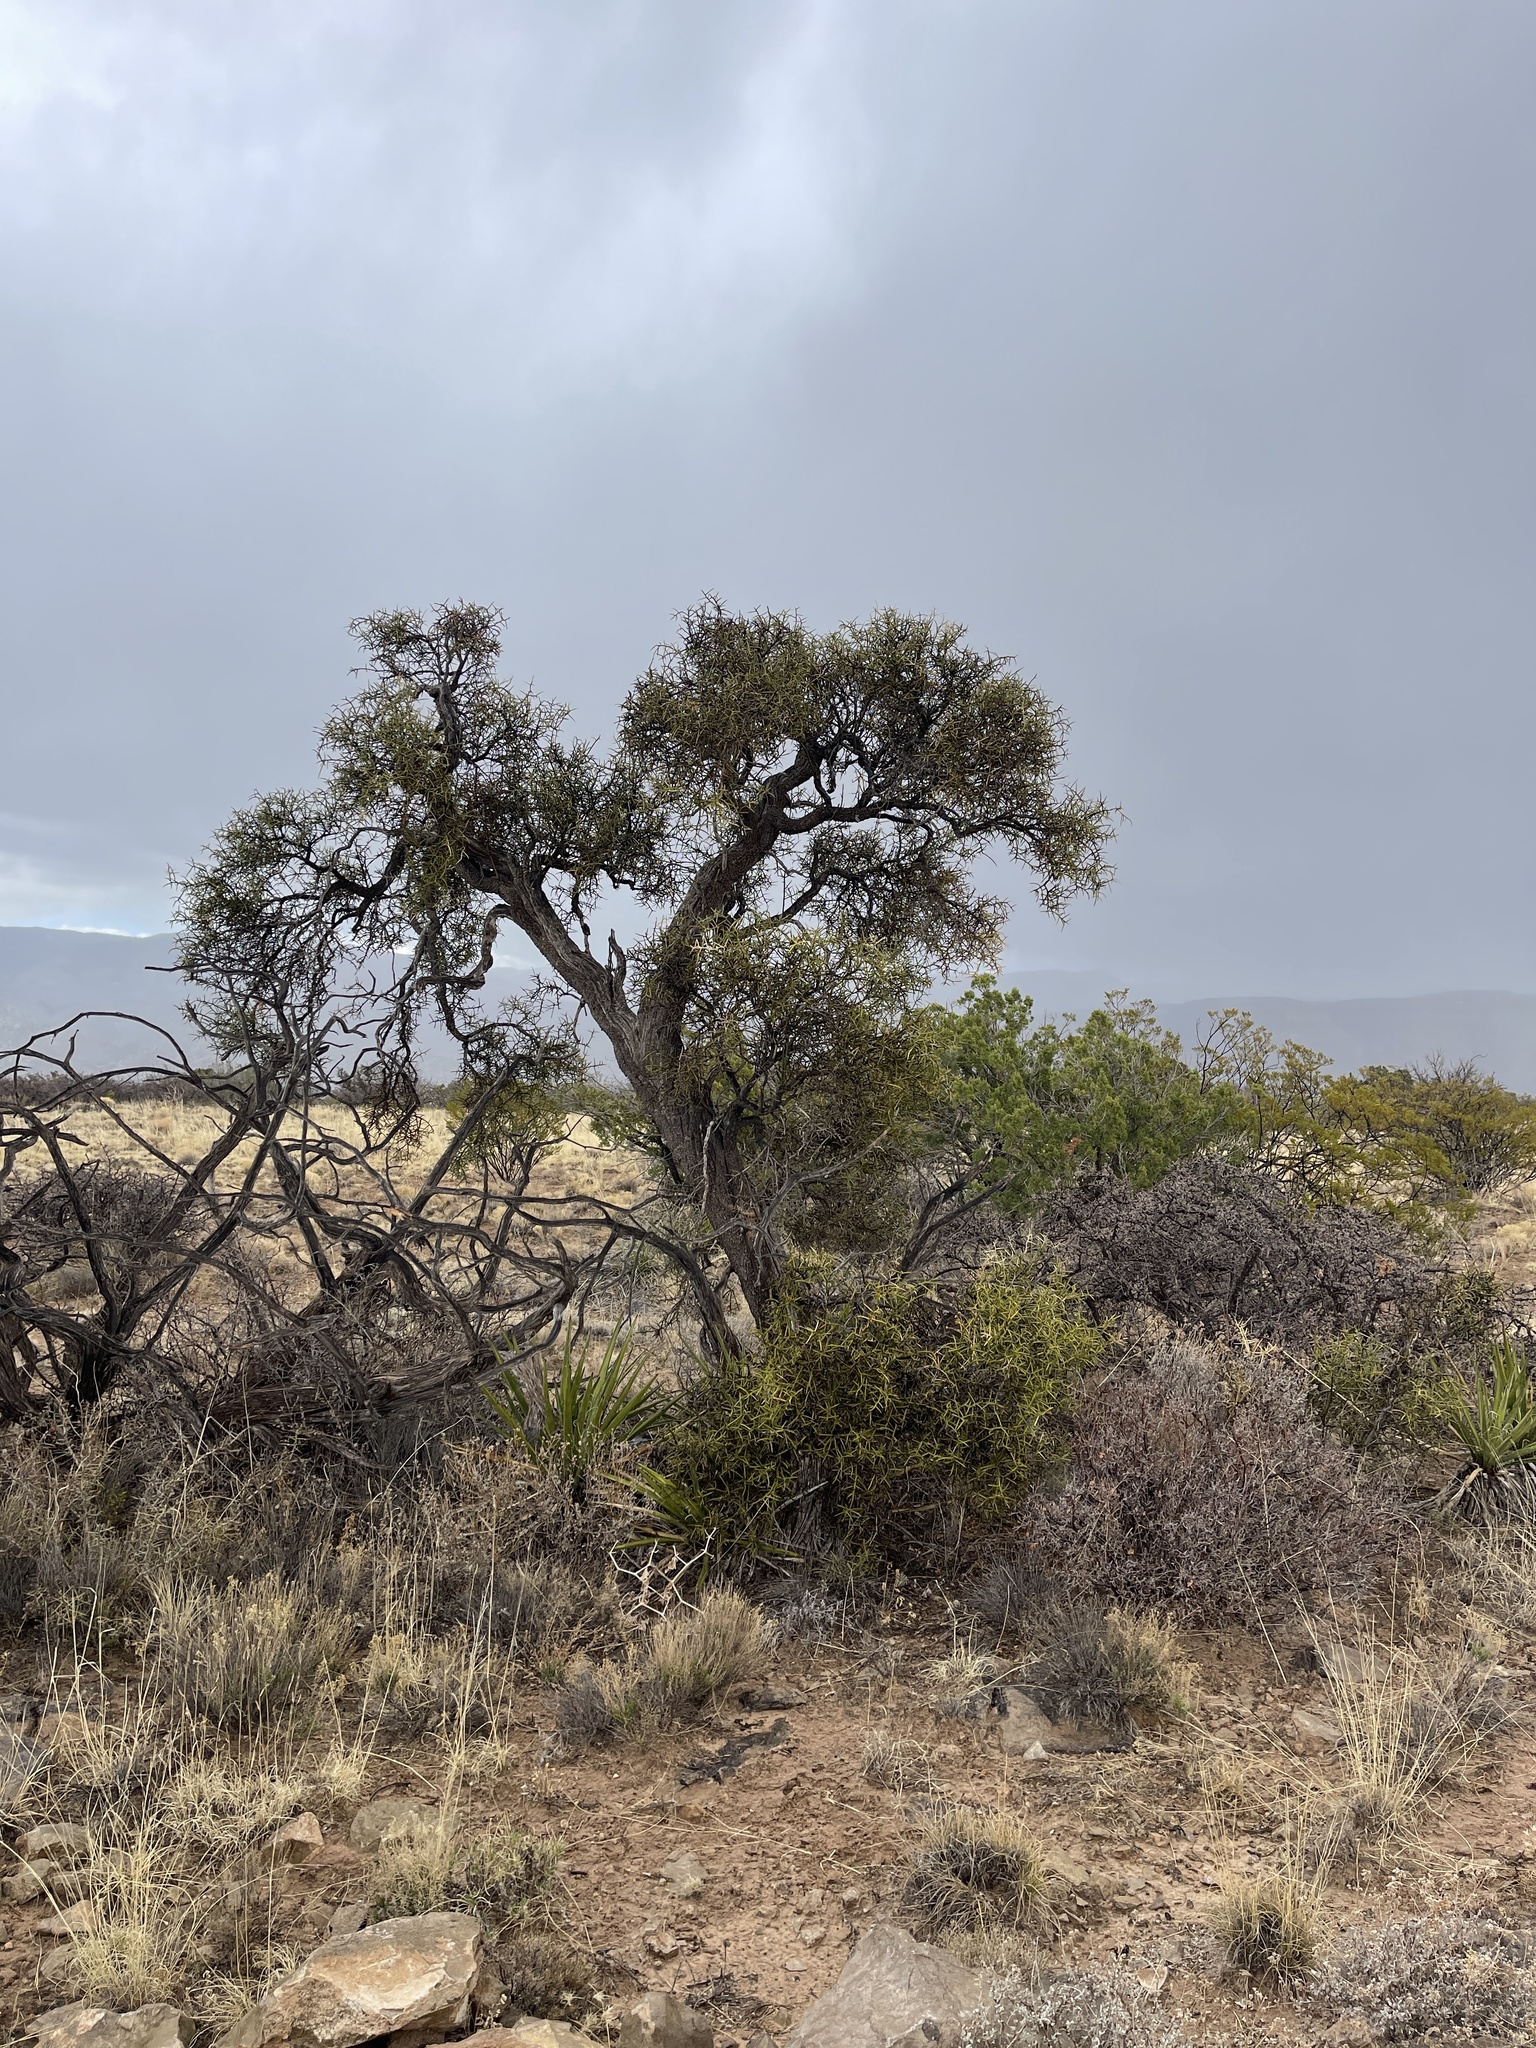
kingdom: Plantae
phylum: Tracheophyta
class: Magnoliopsida
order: Brassicales
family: Koeberliniaceae
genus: Koeberlinia
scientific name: Koeberlinia spinosa
